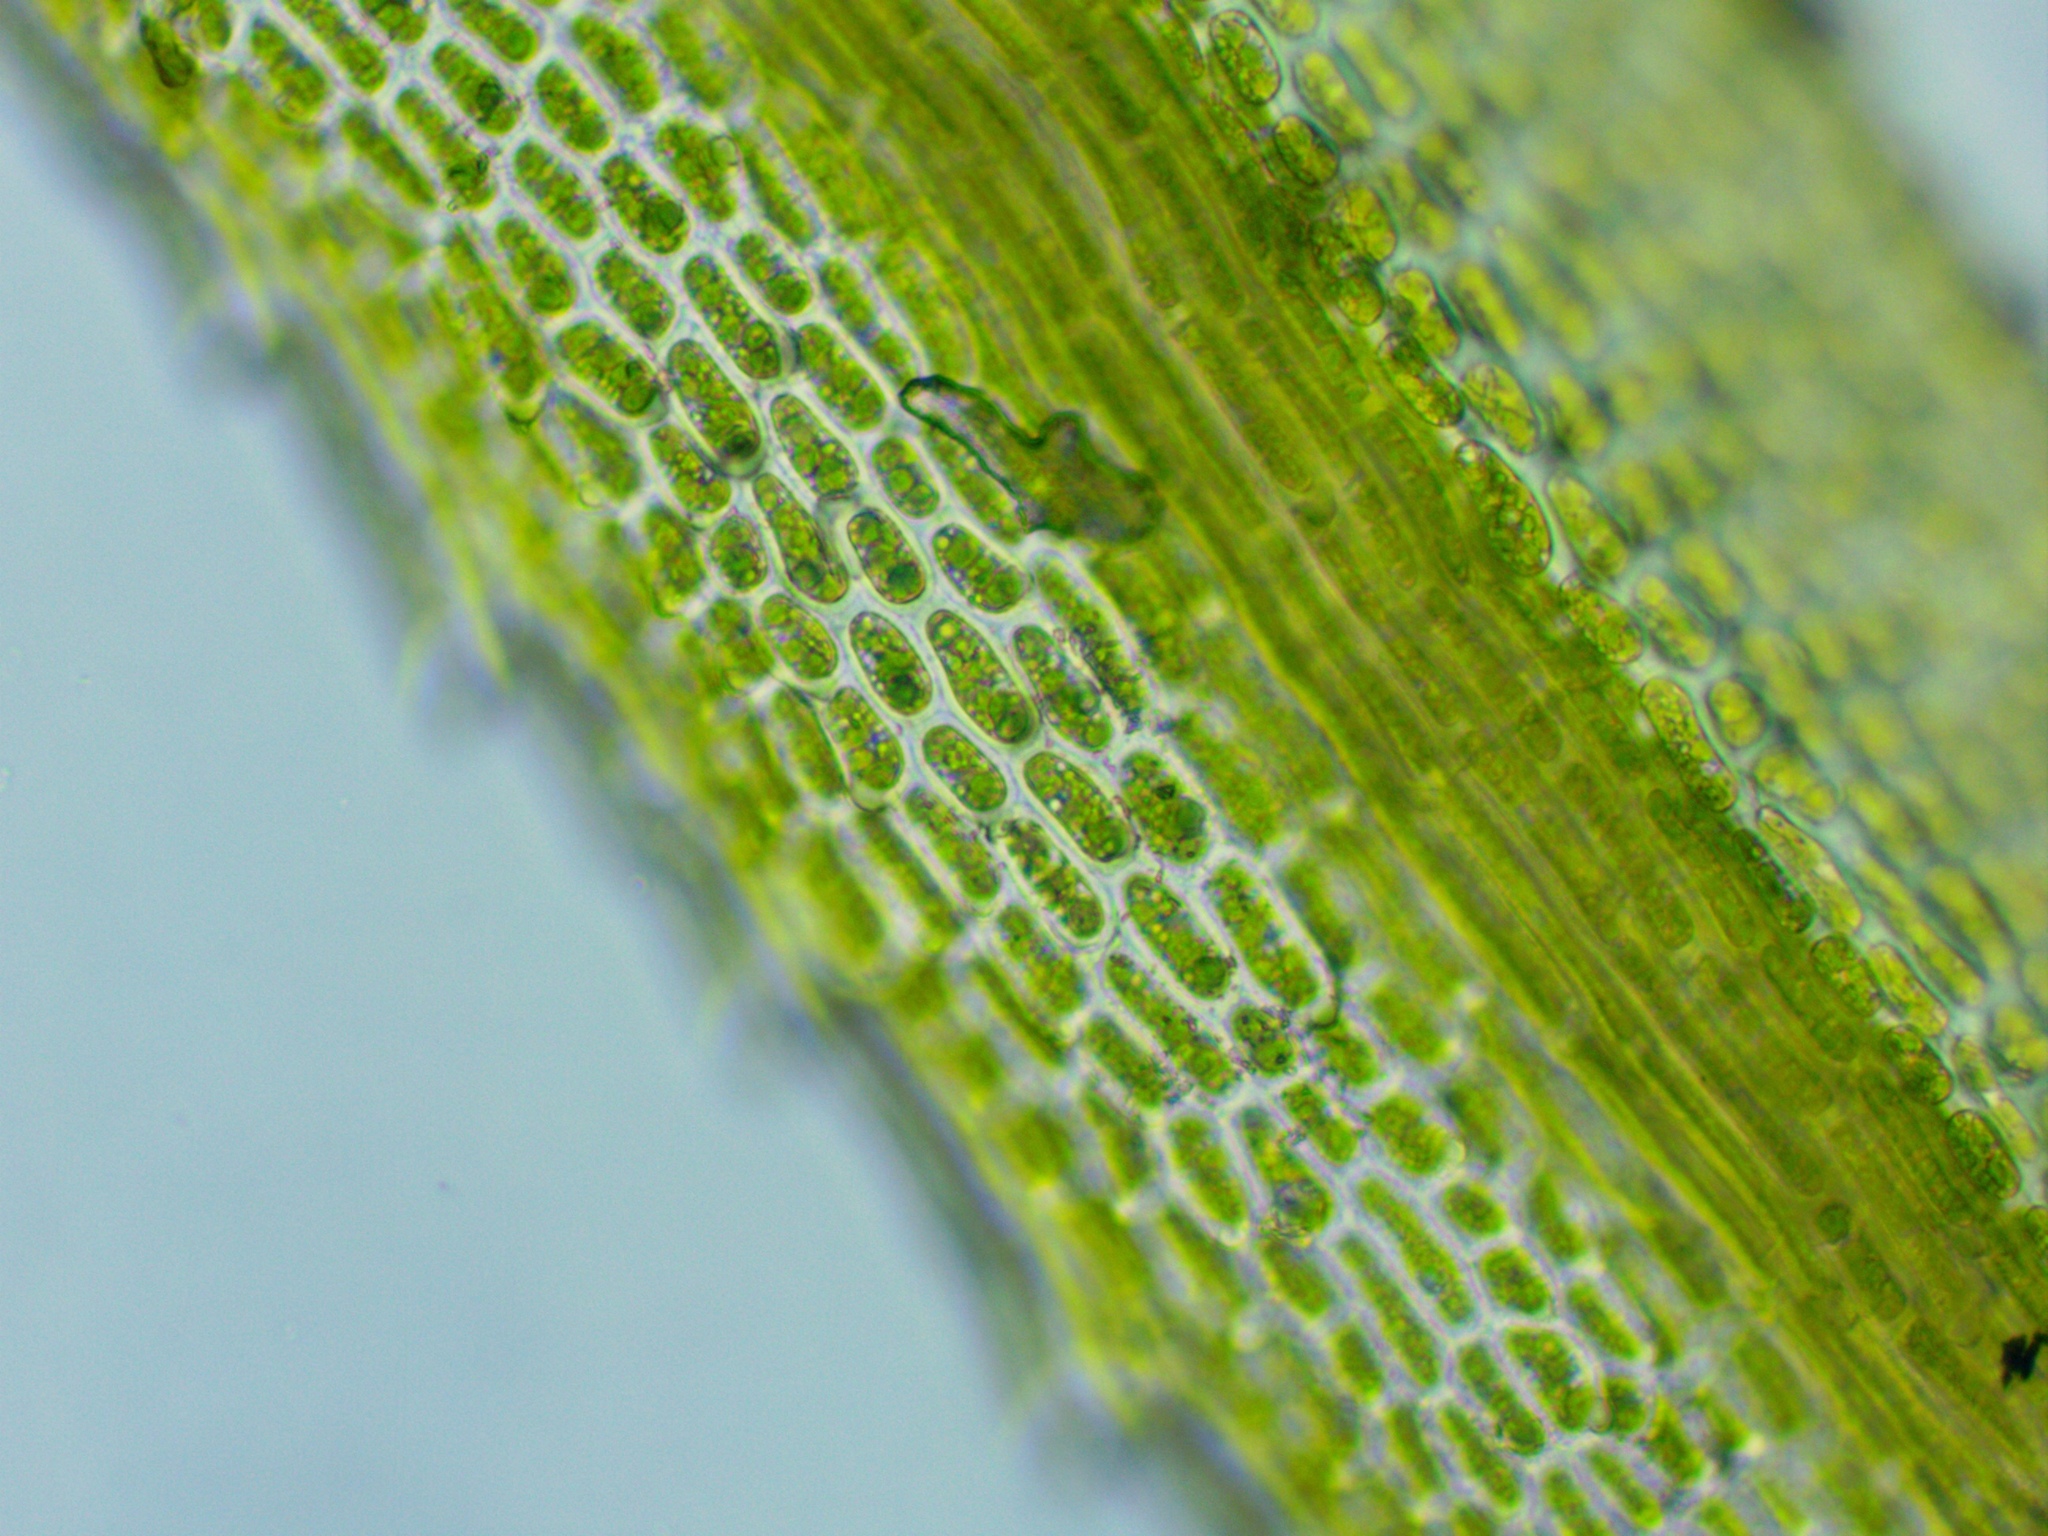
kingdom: Plantae
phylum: Bryophyta
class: Bryopsida
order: Bartramiales
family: Bartramiaceae
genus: Bartramia
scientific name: Bartramia ithyphylla
